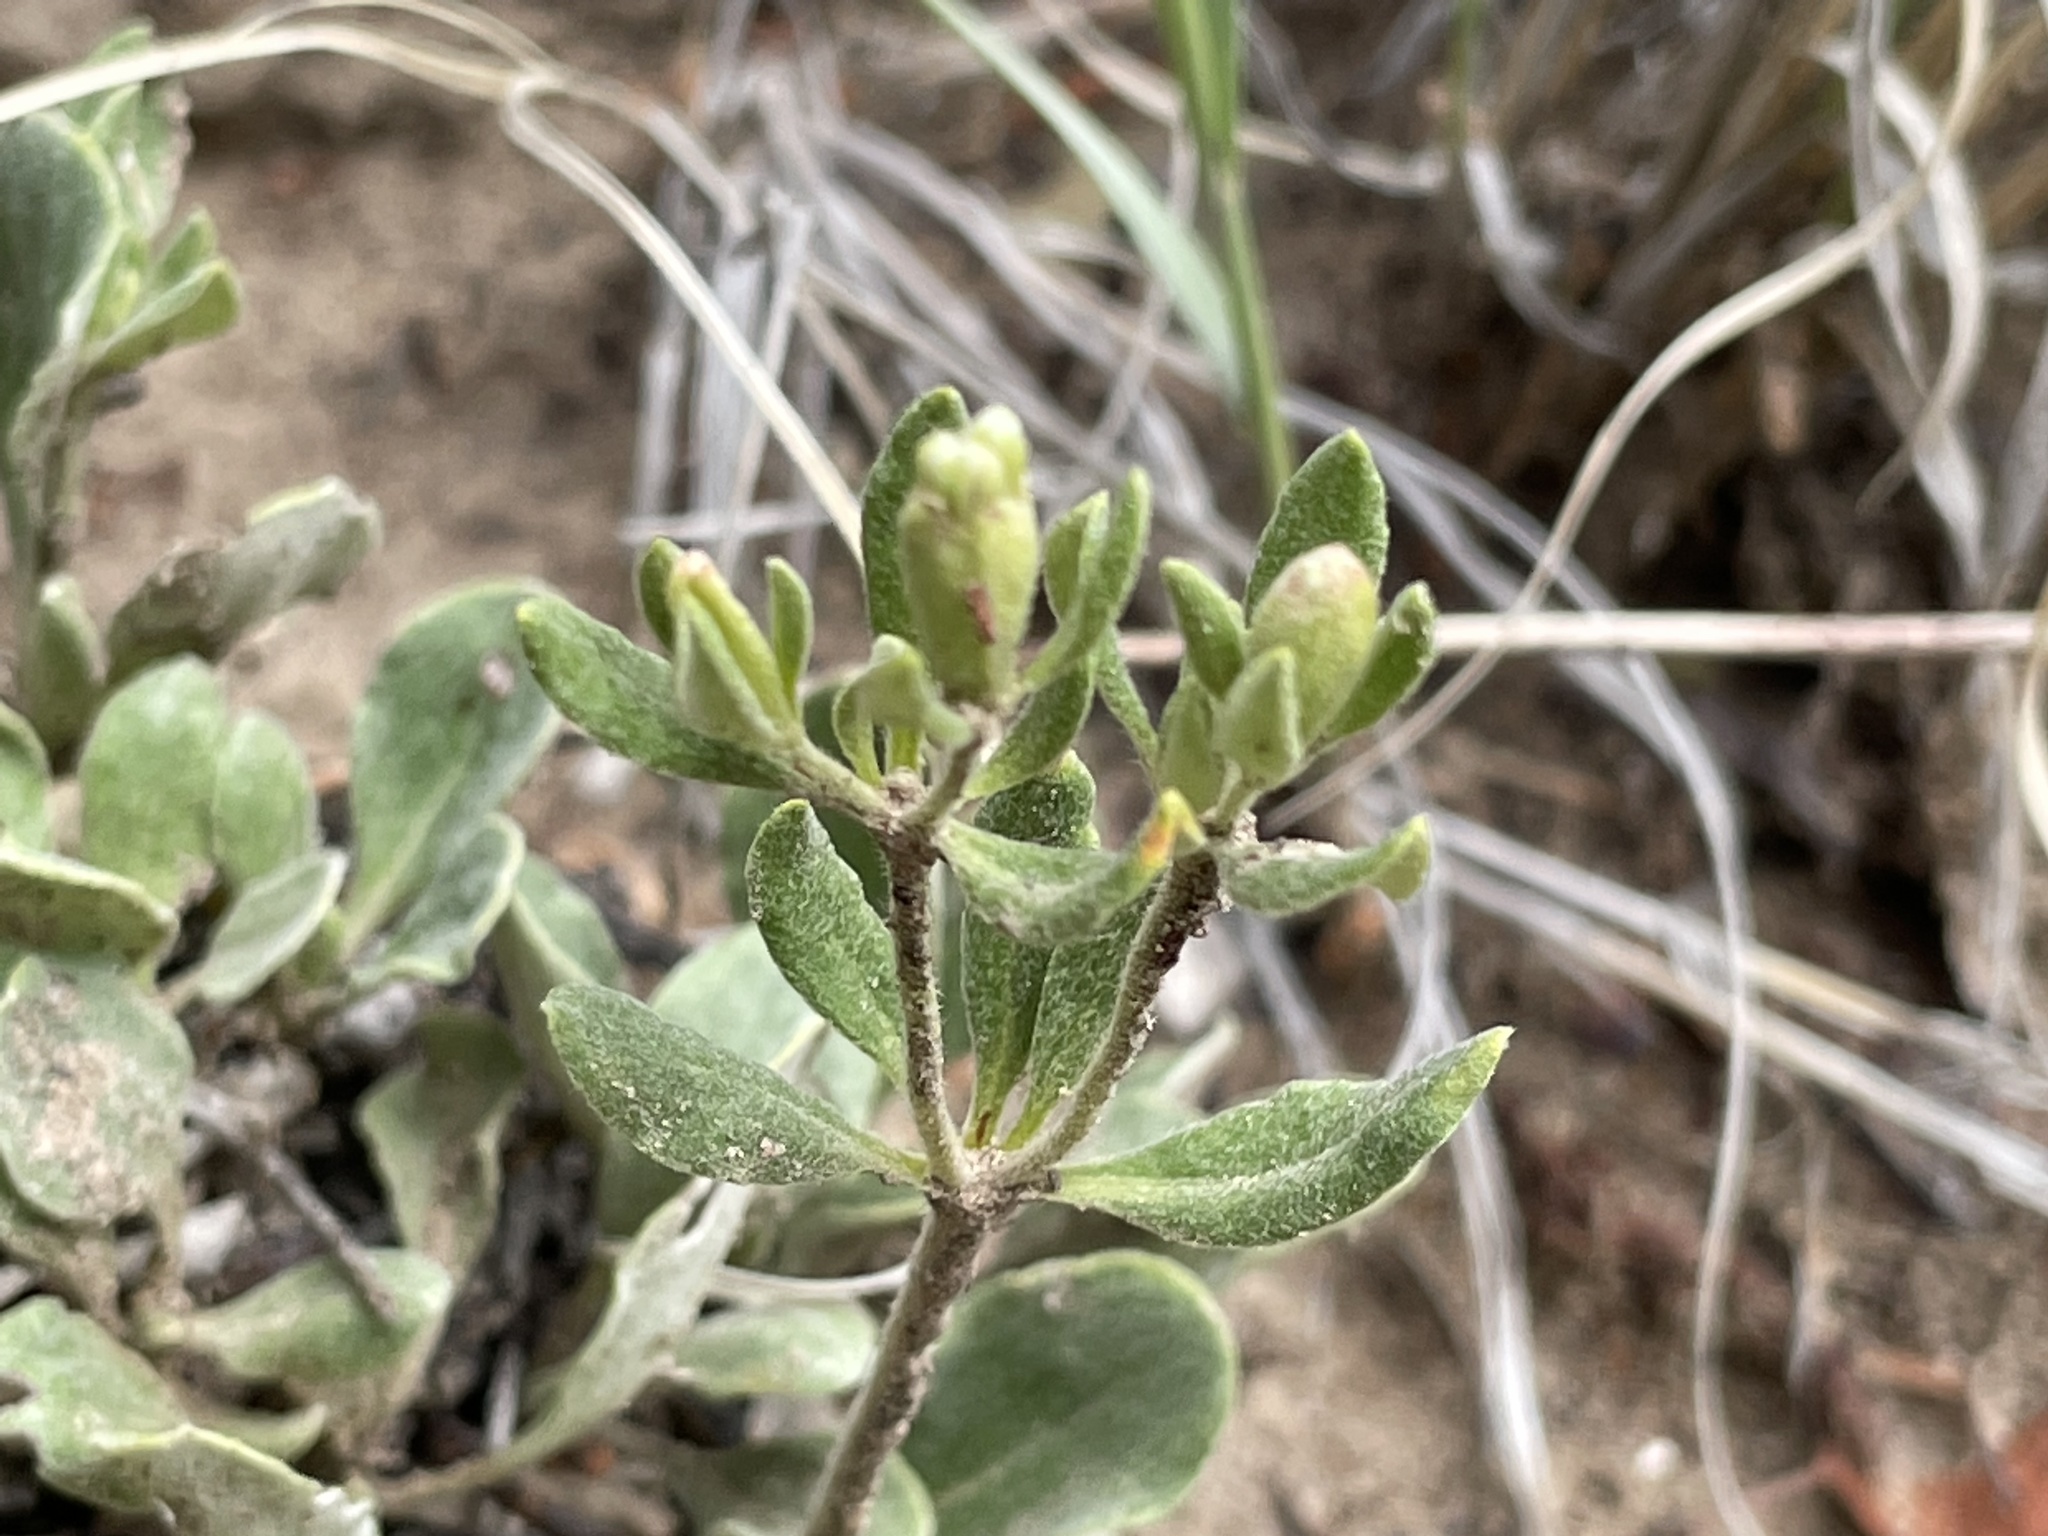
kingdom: Plantae
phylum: Tracheophyta
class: Magnoliopsida
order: Caryophyllales
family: Polygonaceae
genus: Eriogonum
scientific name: Eriogonum jamesii
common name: Antelope-sage
